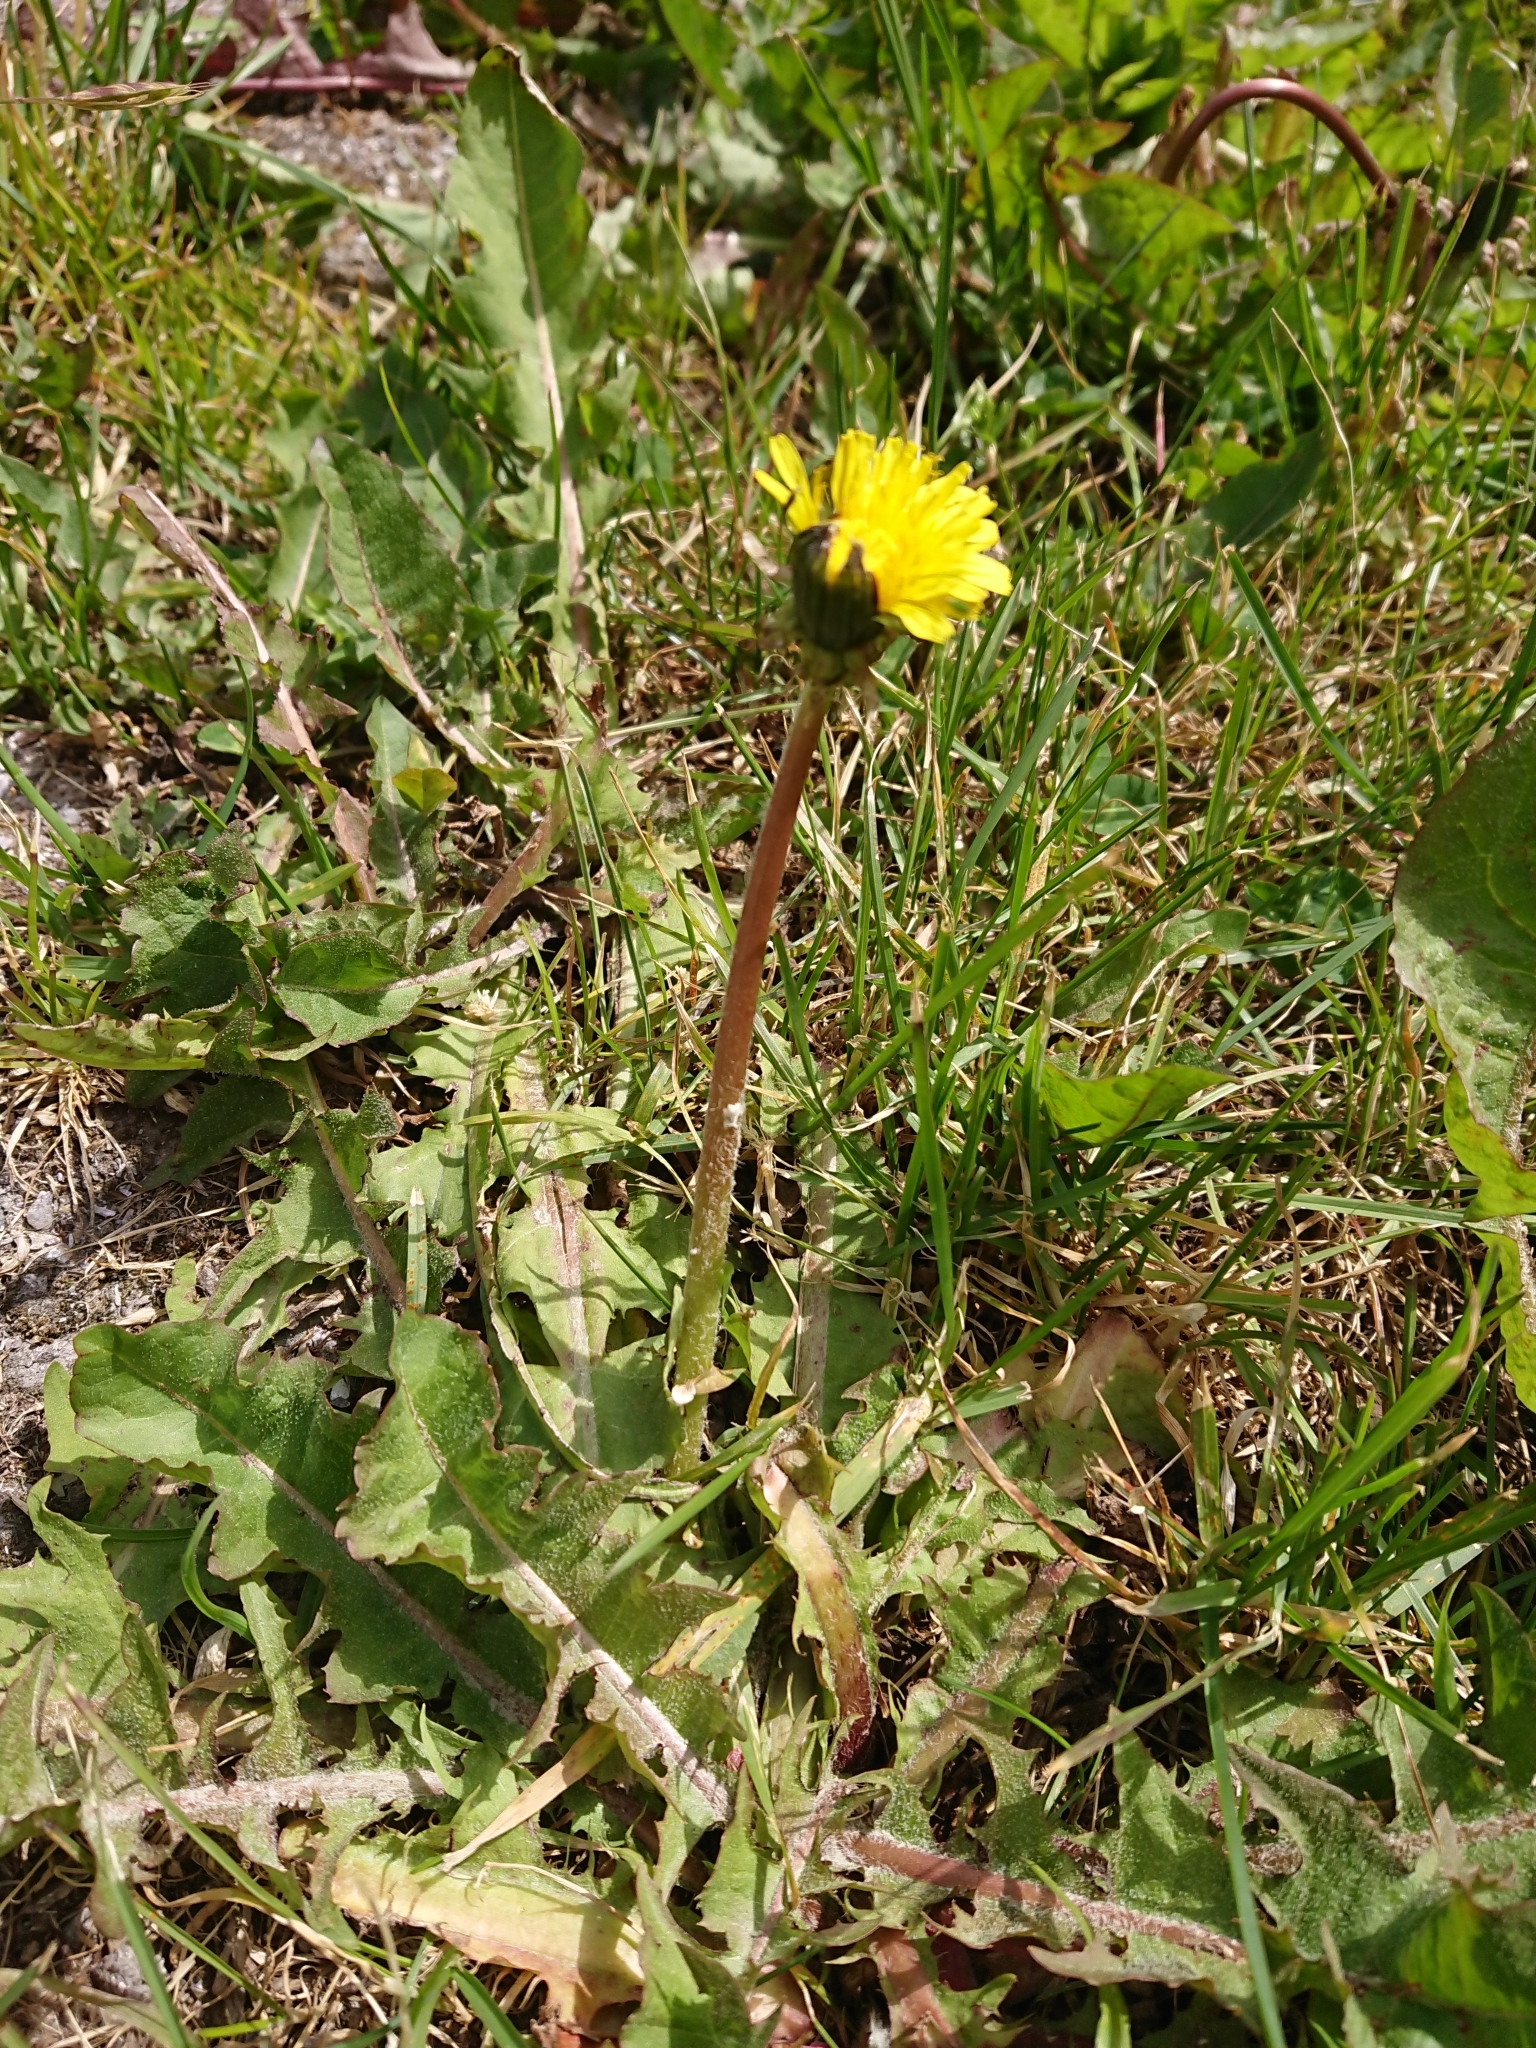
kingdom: Plantae
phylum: Tracheophyta
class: Magnoliopsida
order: Asterales
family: Asteraceae
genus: Taraxacum
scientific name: Taraxacum officinale
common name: Common dandelion
